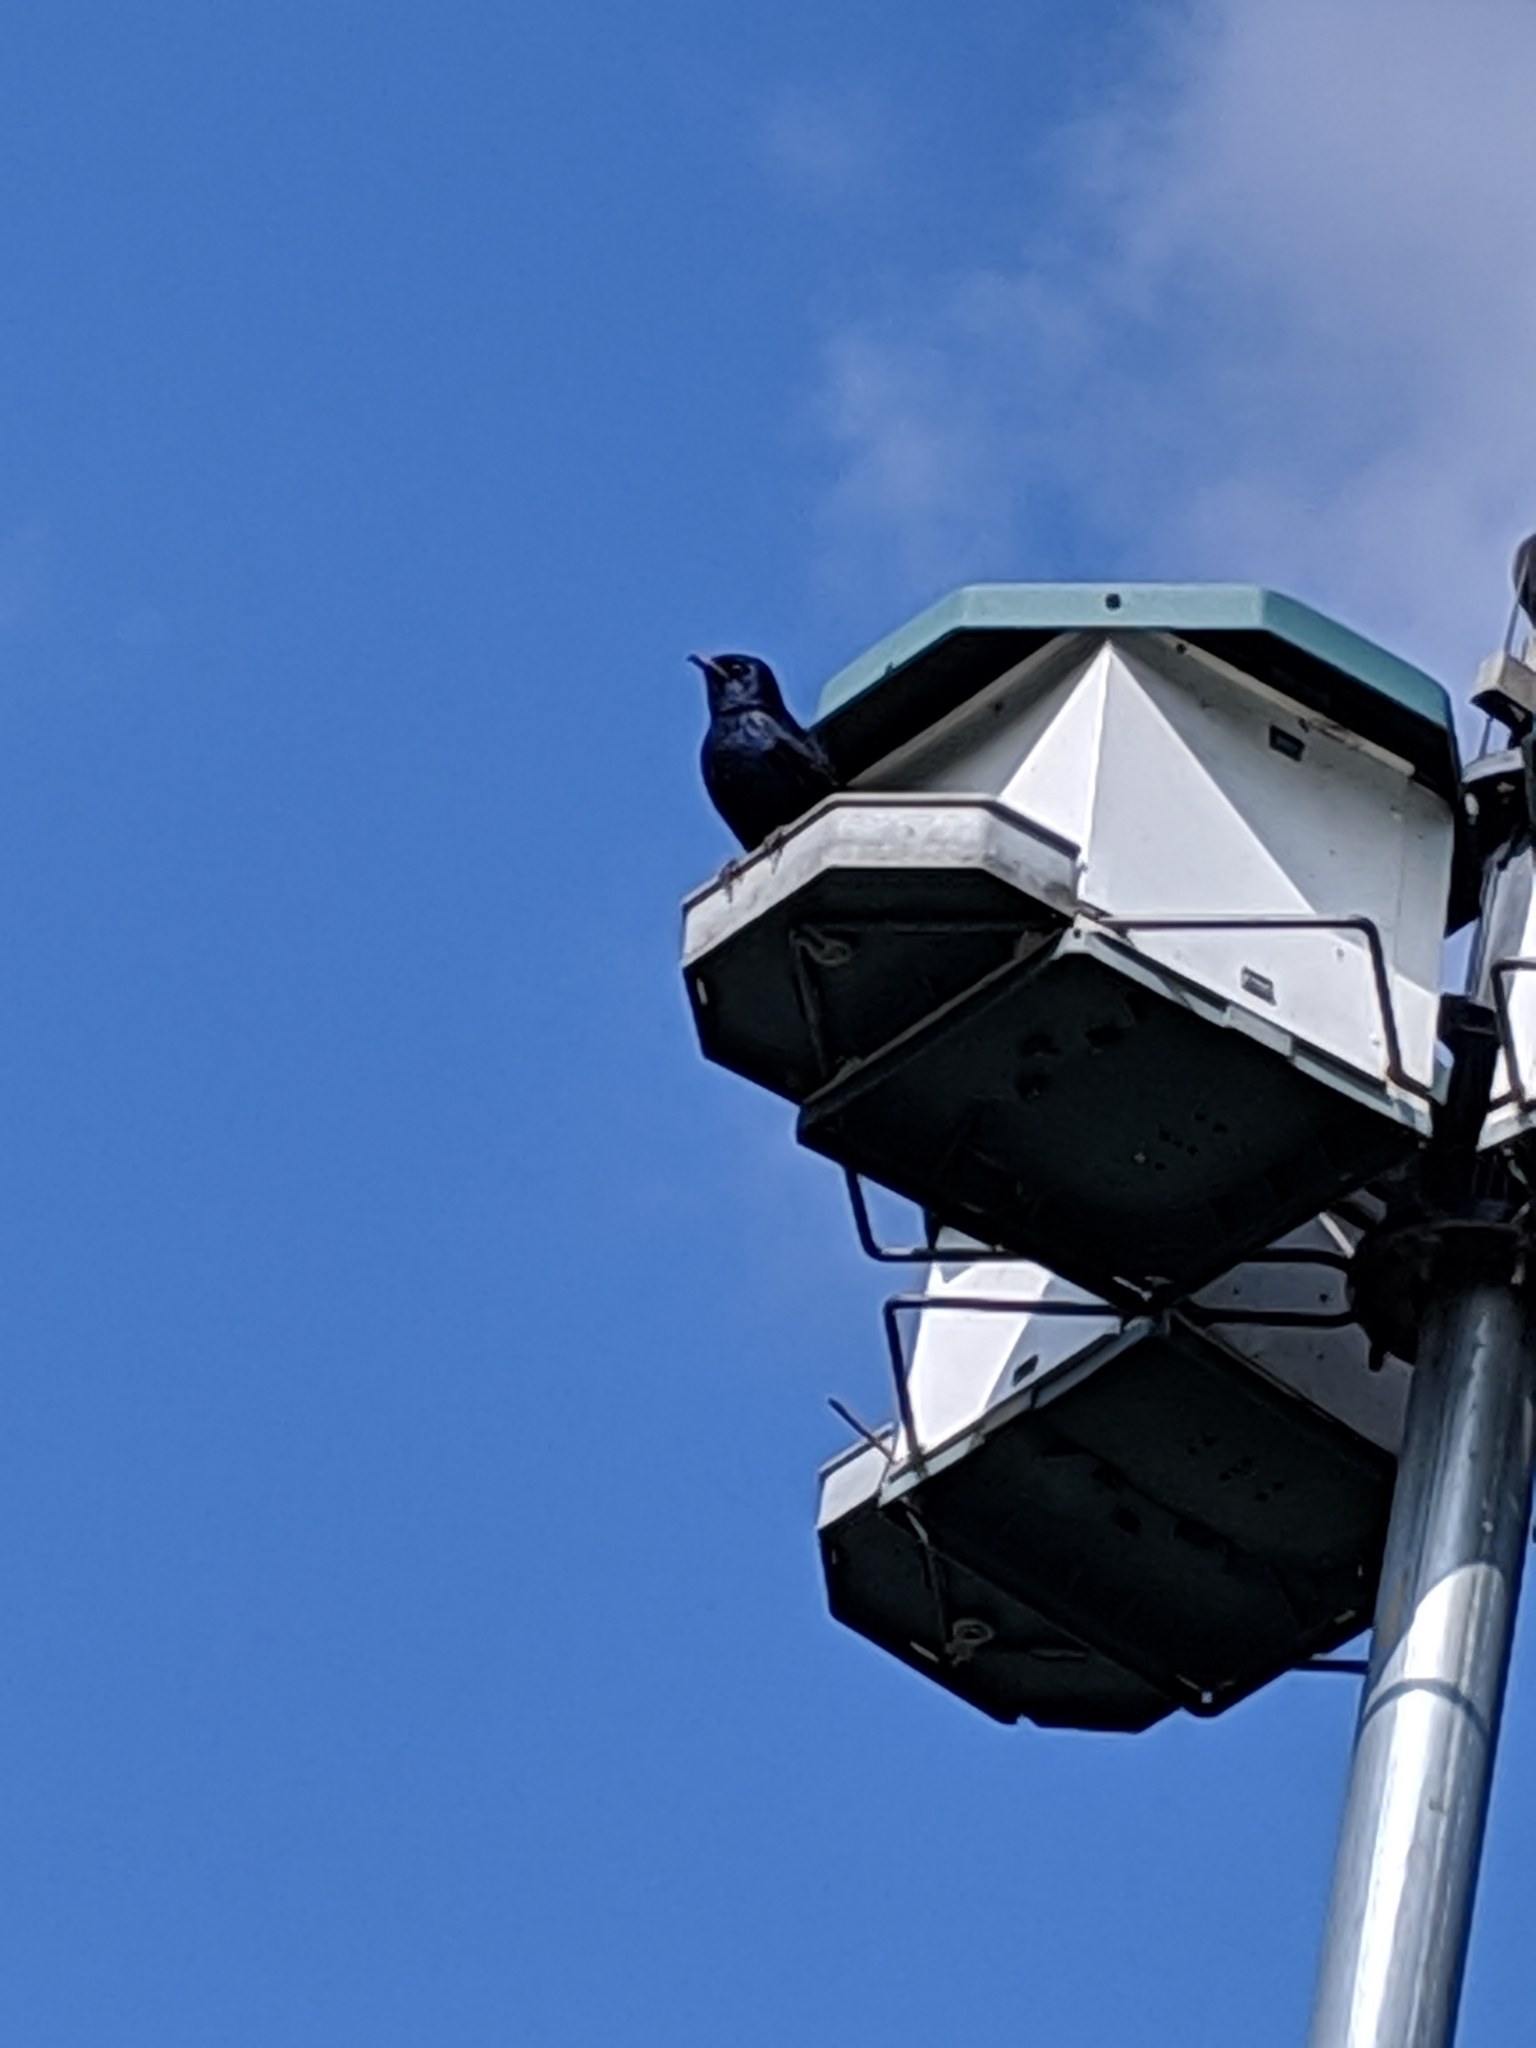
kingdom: Animalia
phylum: Chordata
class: Aves
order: Passeriformes
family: Hirundinidae
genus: Progne
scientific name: Progne subis
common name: Purple martin
